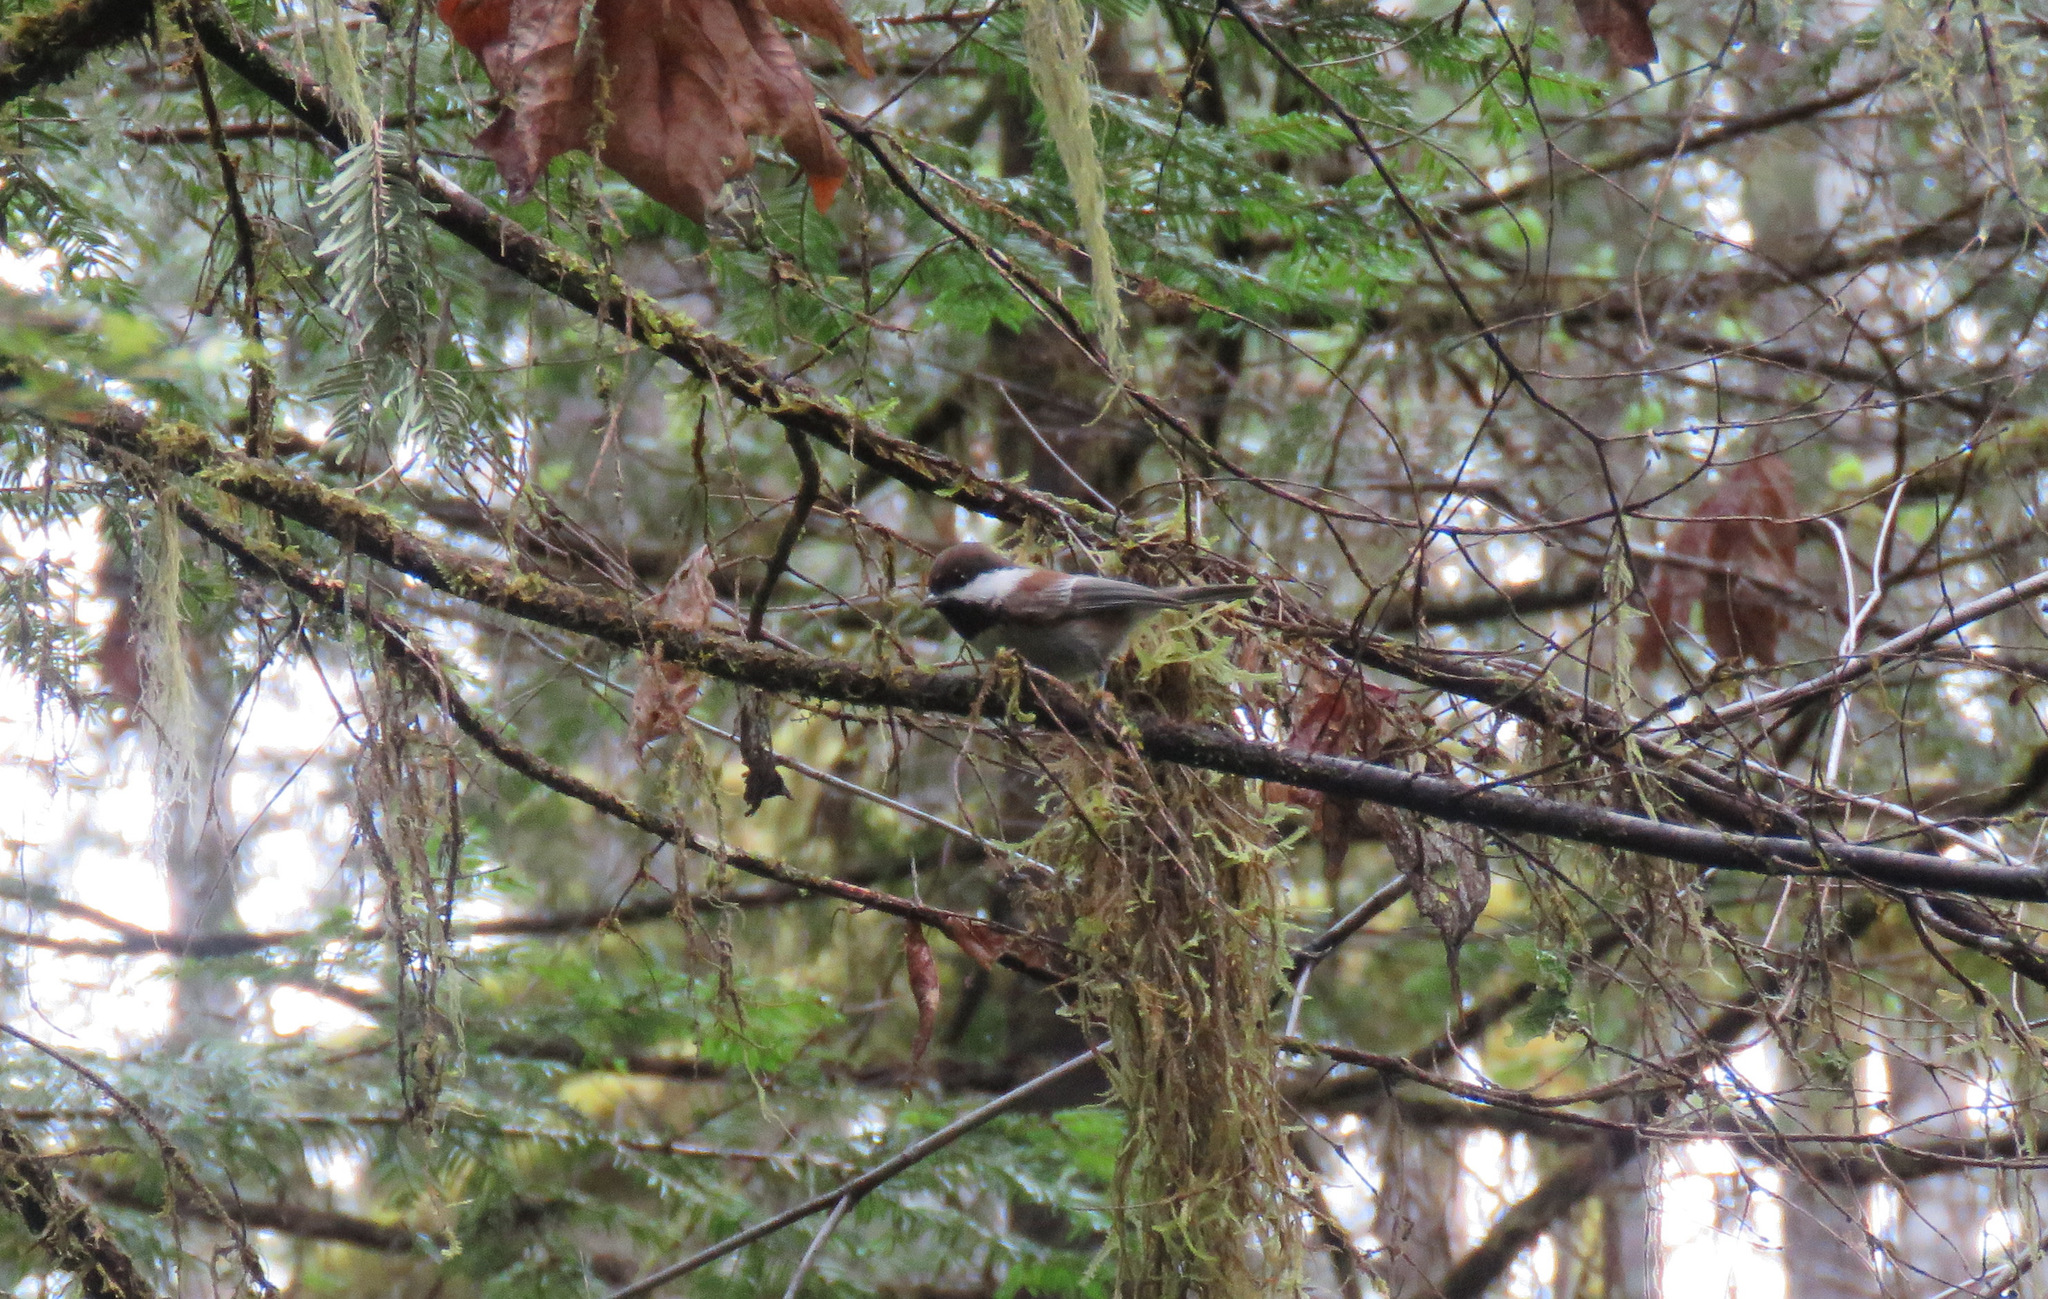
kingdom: Animalia
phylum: Chordata
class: Aves
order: Passeriformes
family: Paridae
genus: Poecile
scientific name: Poecile rufescens
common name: Chestnut-backed chickadee
